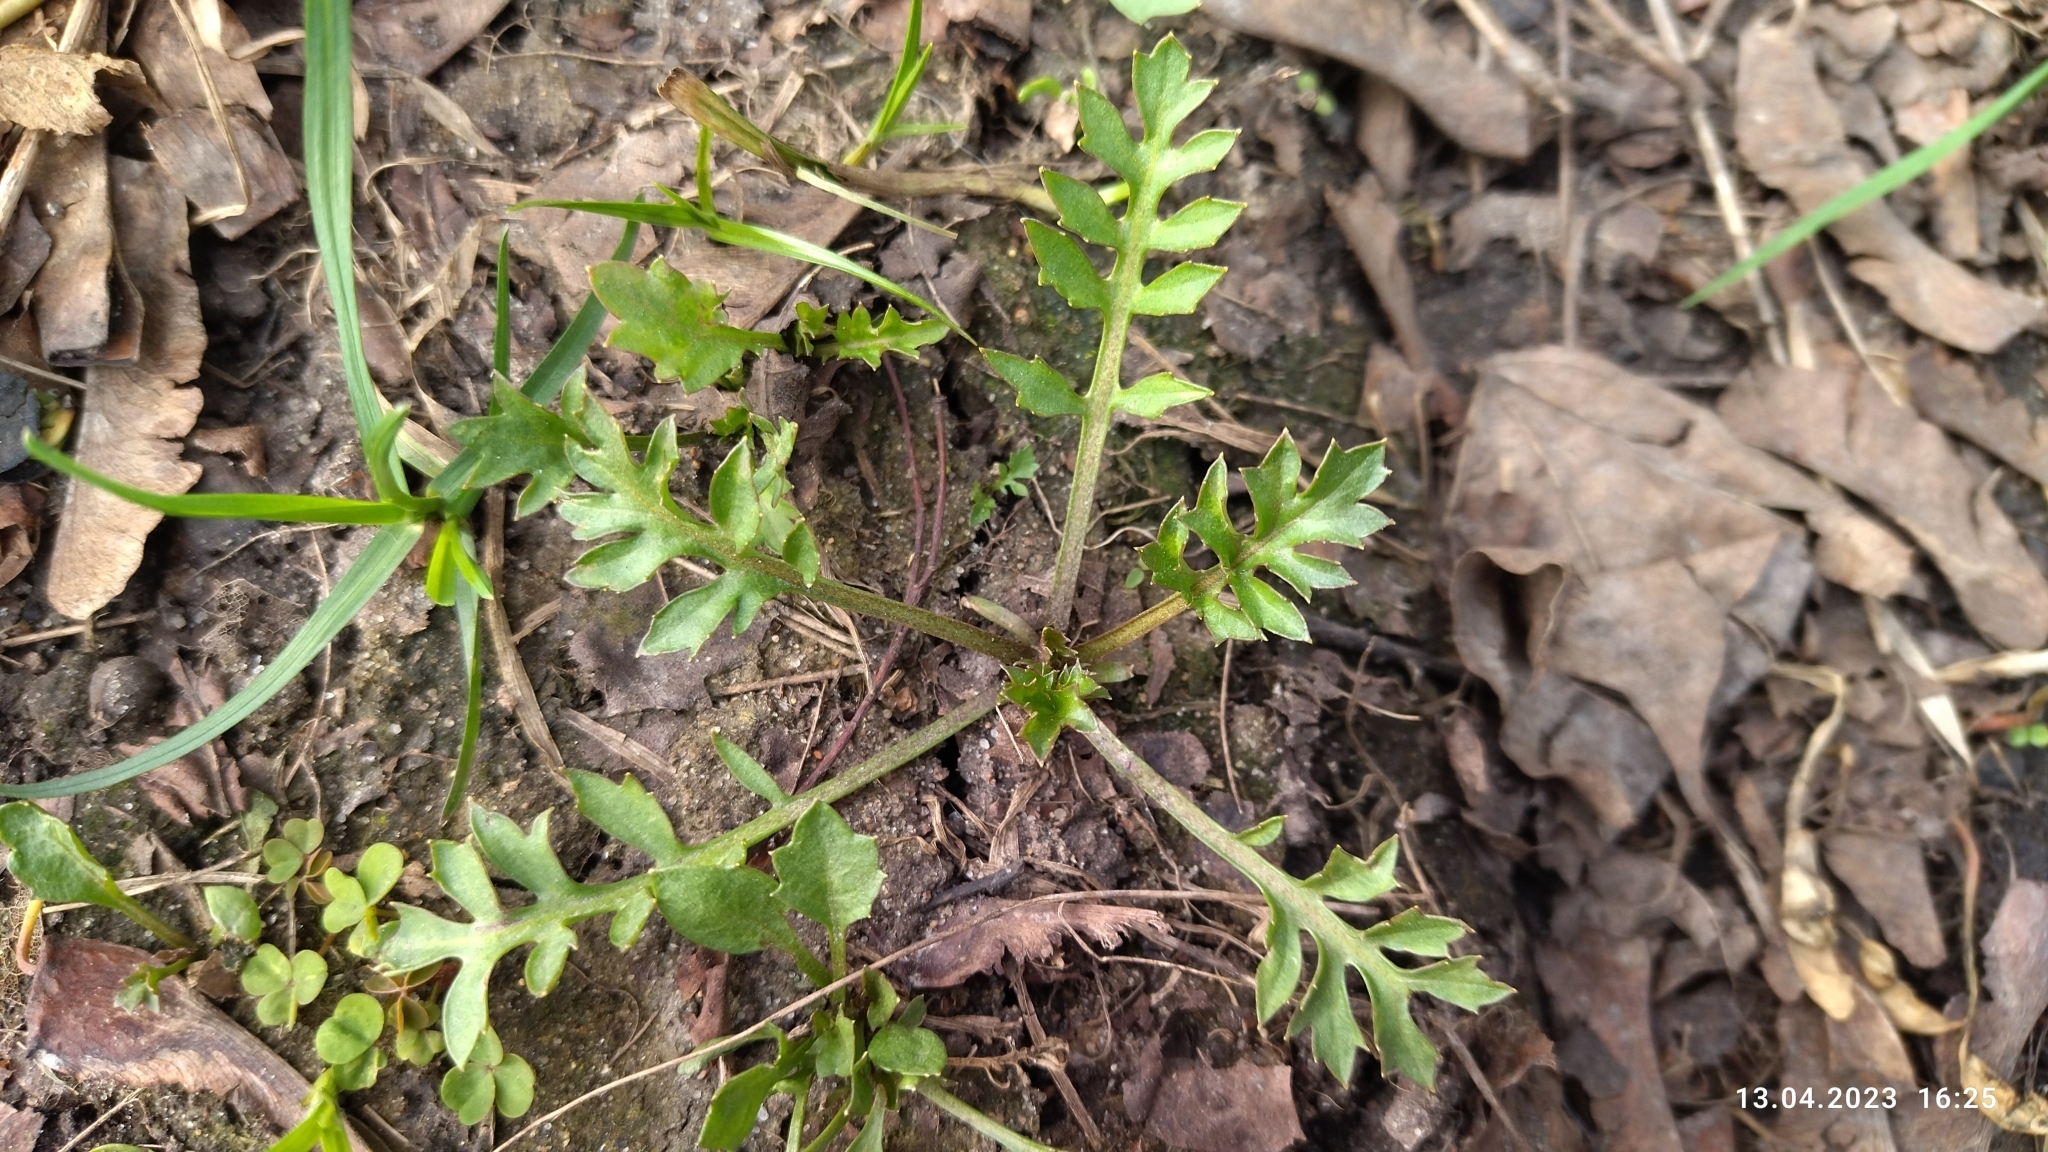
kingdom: Plantae
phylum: Tracheophyta
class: Magnoliopsida
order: Brassicales
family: Brassicaceae
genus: Rorippa
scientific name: Rorippa sylvestris
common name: Creeping yellowcress
